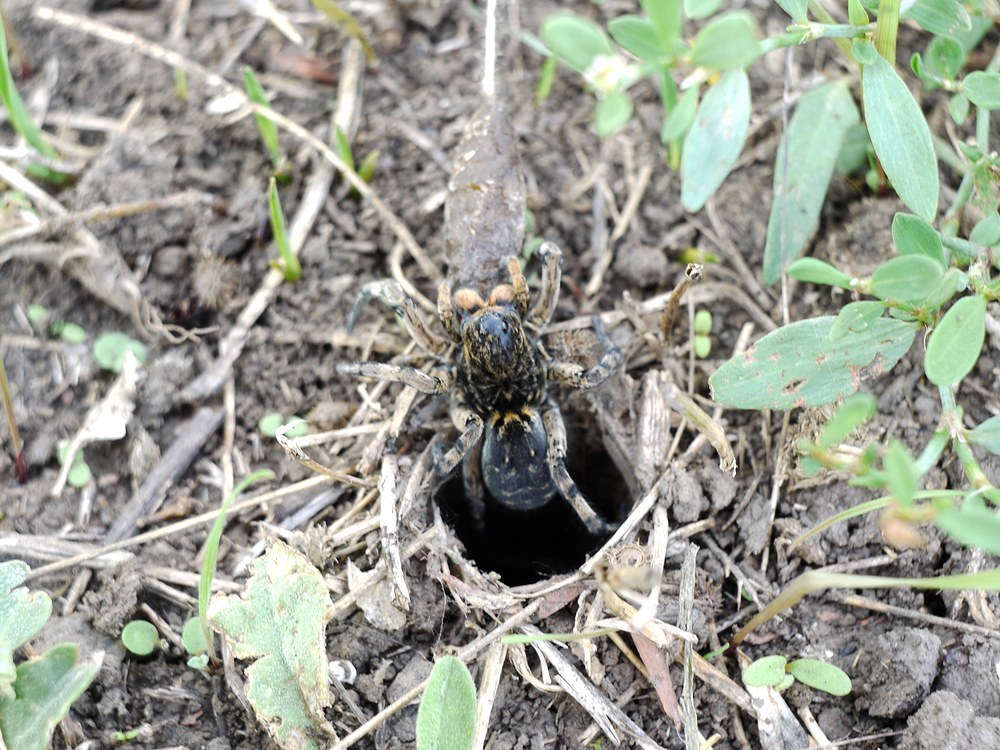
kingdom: Animalia
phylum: Arthropoda
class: Arachnida
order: Araneae
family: Lycosidae
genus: Geolycosa
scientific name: Geolycosa vultuosa
